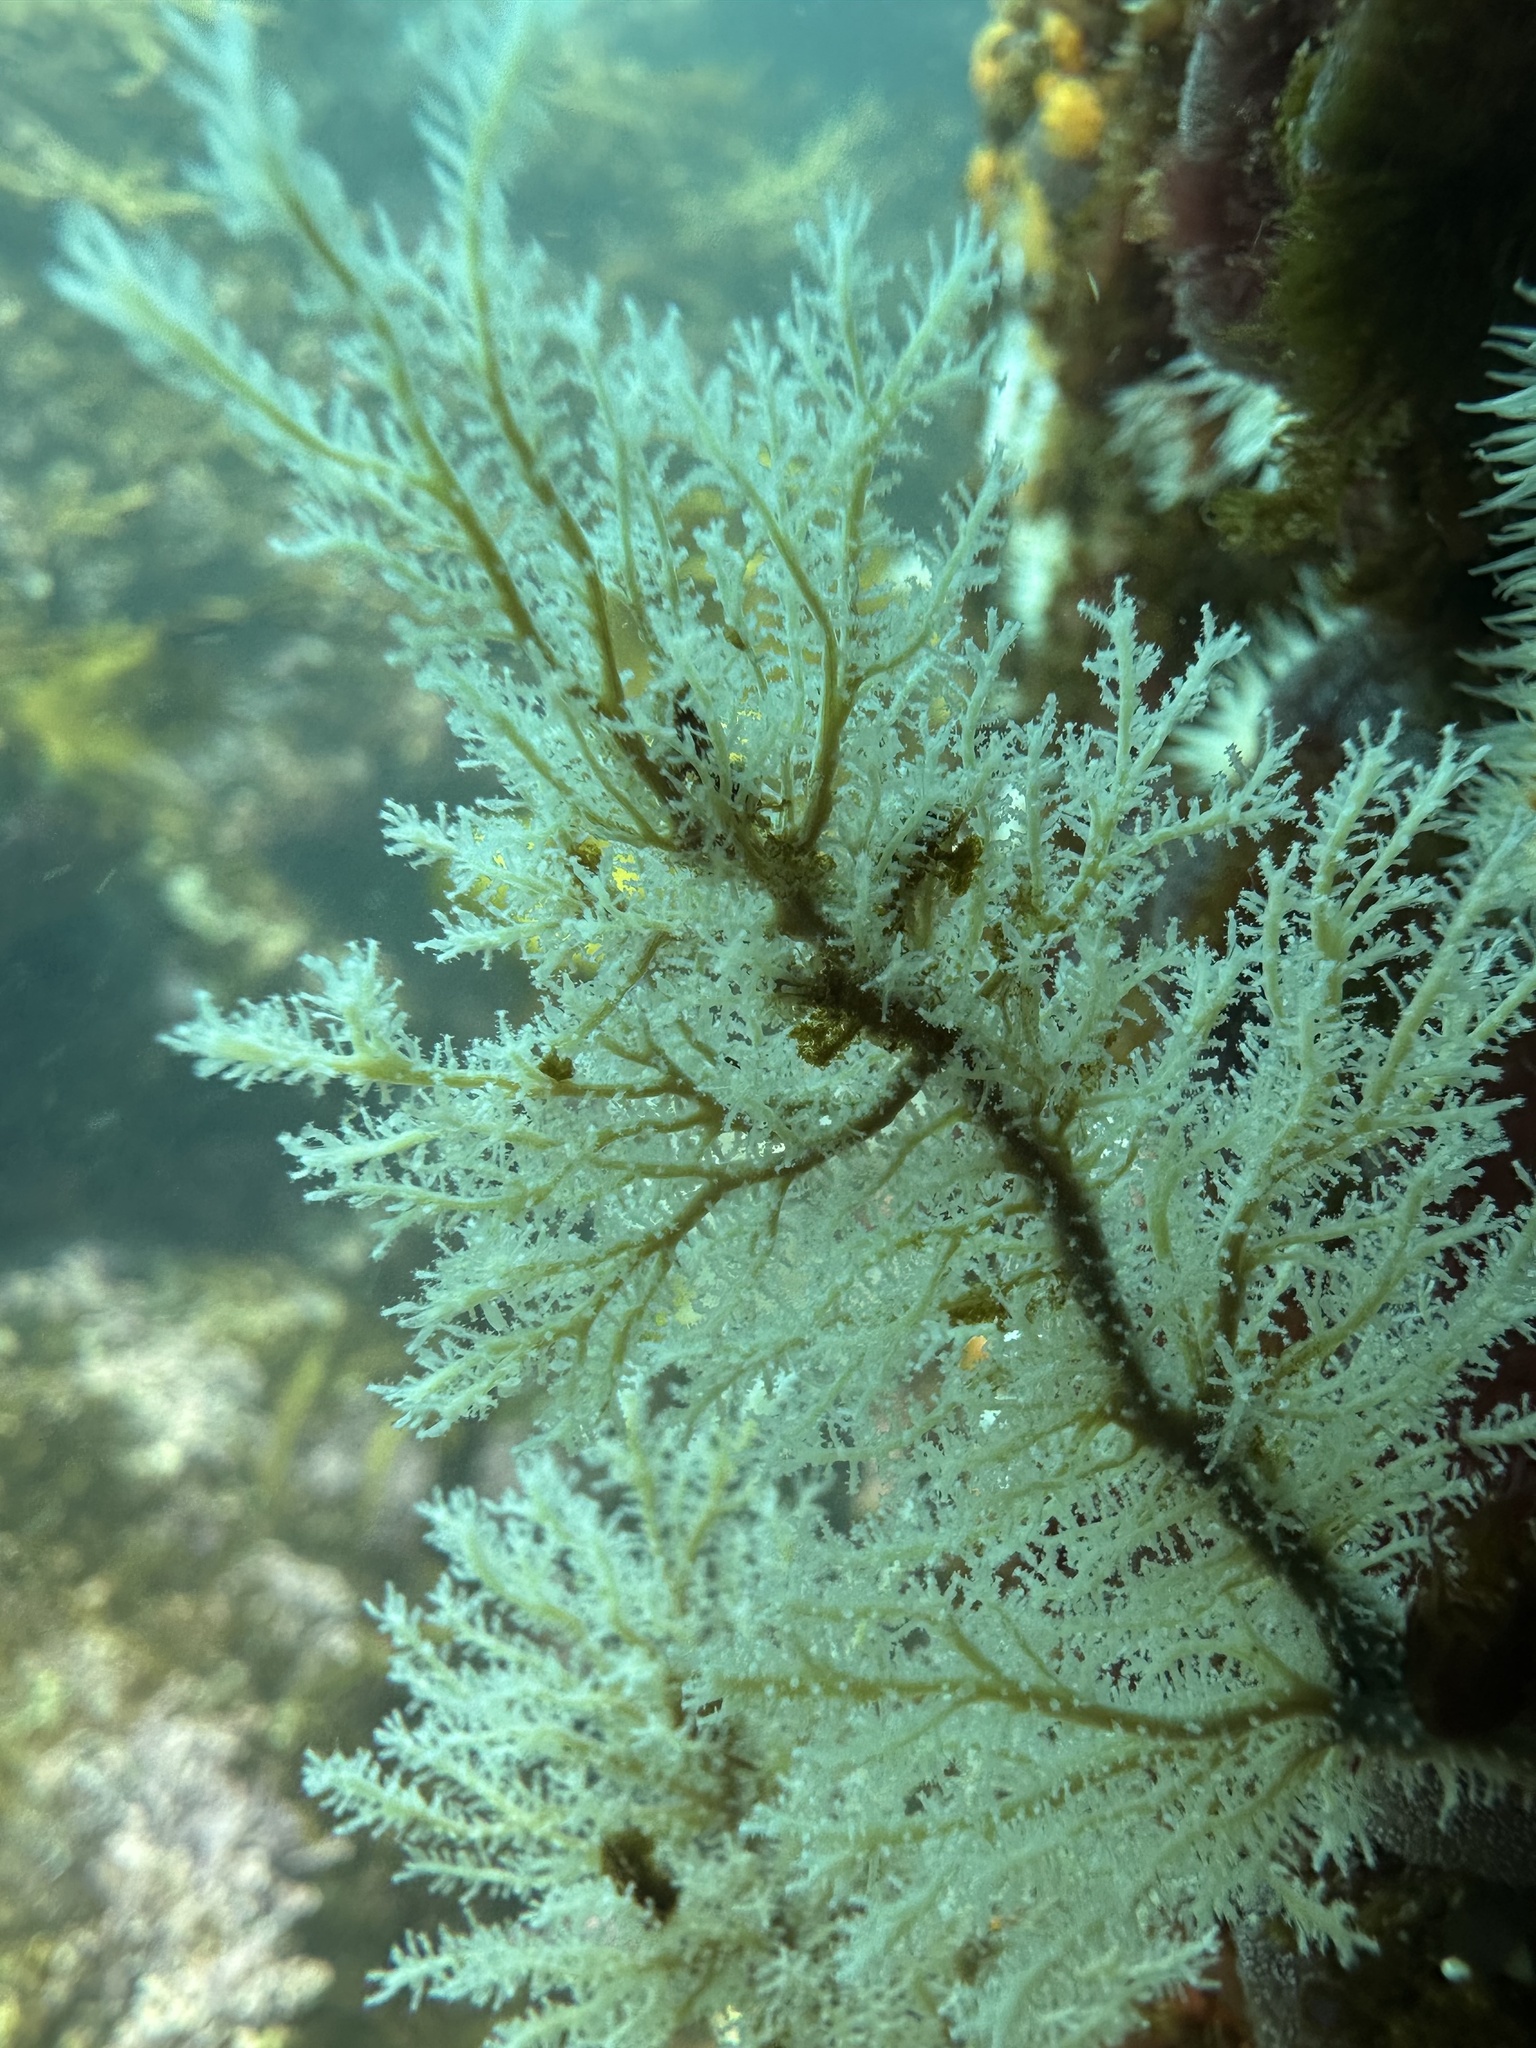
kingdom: Animalia
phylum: Cnidaria
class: Hydrozoa
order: Anthoathecata
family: Solanderiidae
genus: Solanderia
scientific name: Solanderia ericopsis
